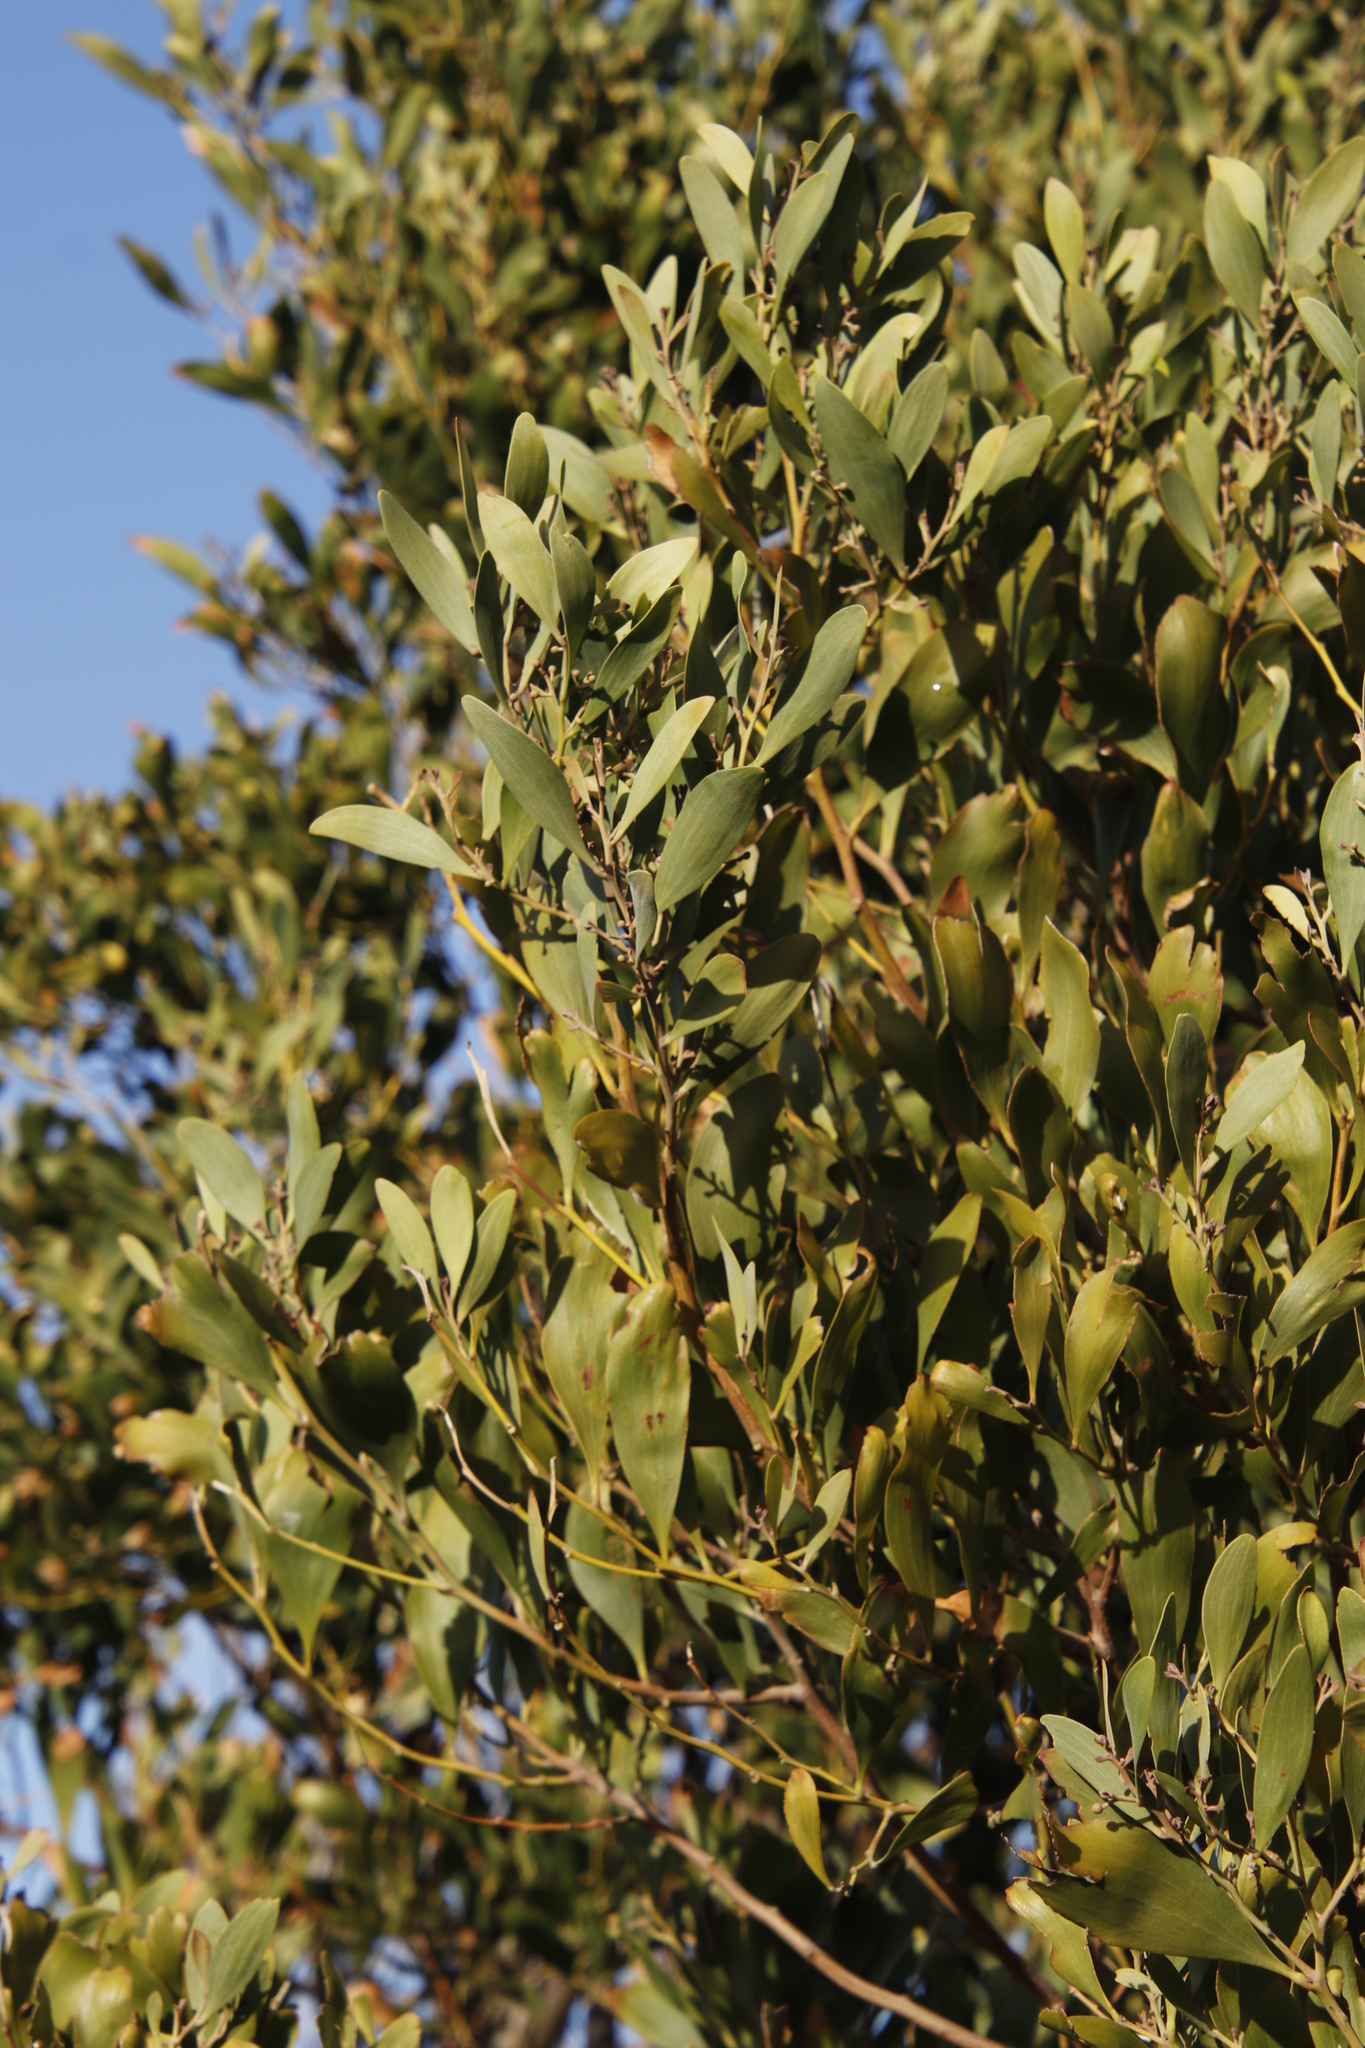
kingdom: Plantae
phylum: Tracheophyta
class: Magnoliopsida
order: Fabales
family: Fabaceae
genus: Acacia
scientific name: Acacia melanoxylon
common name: Blackwood
